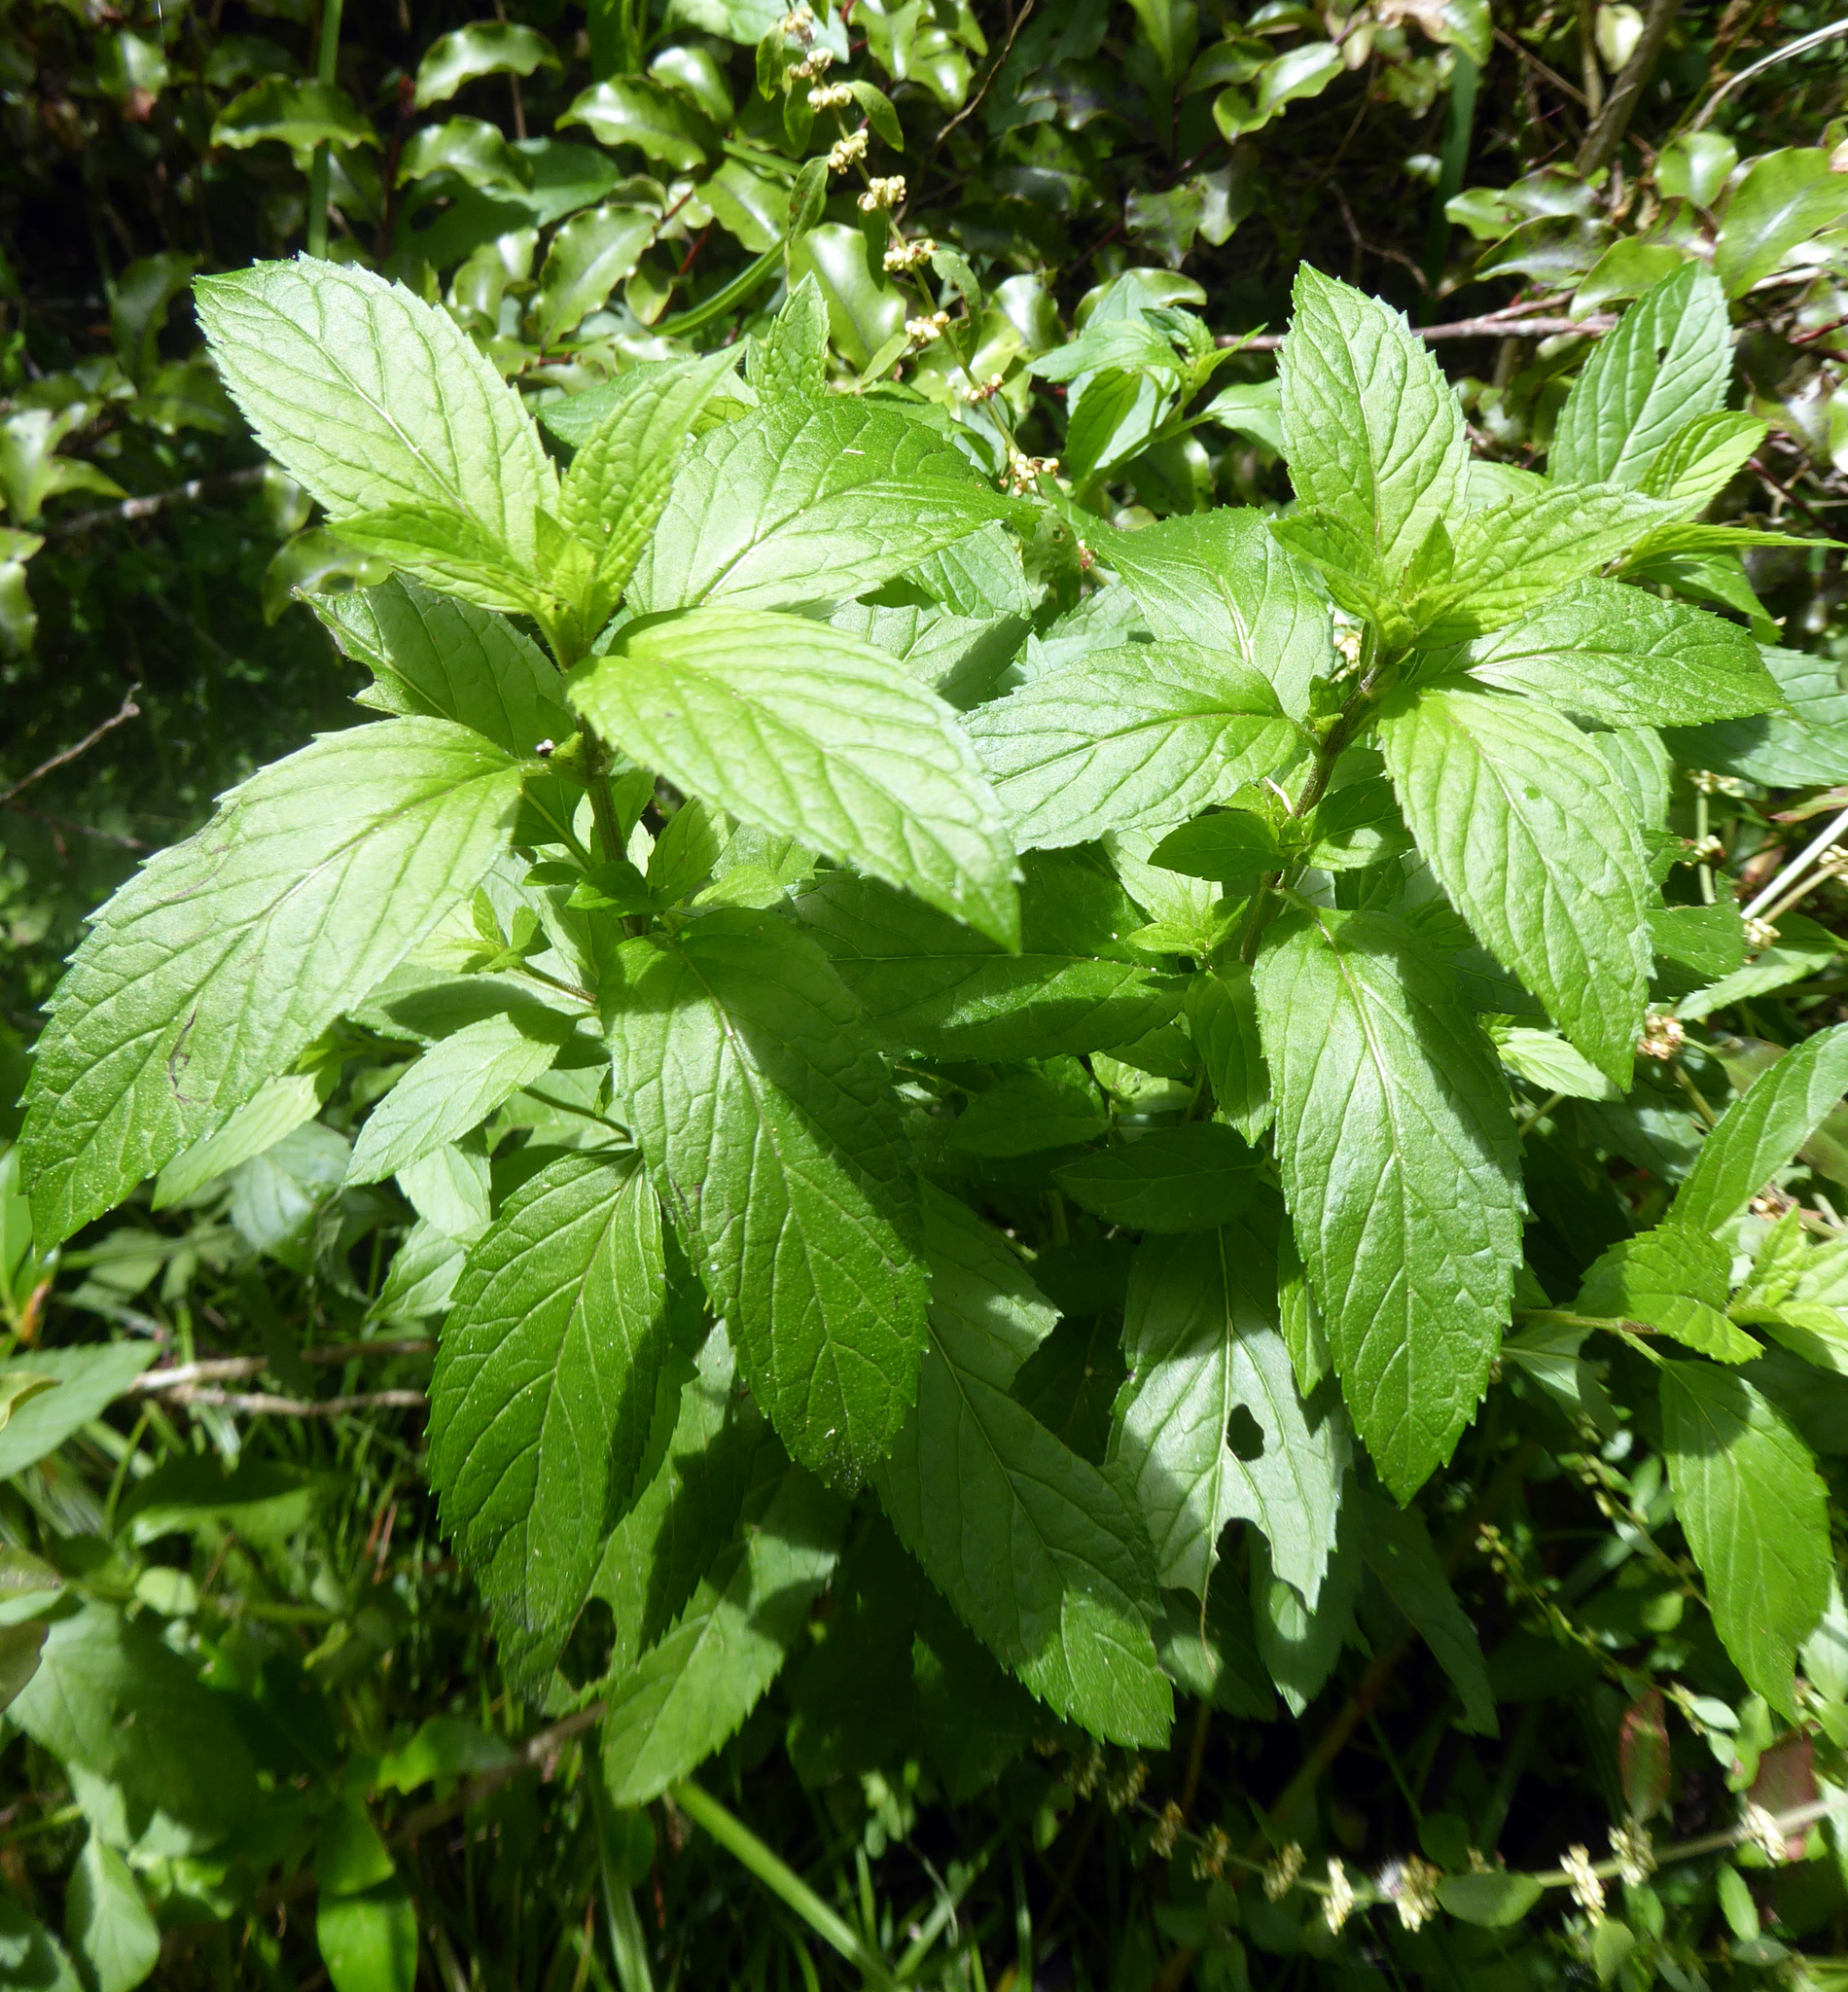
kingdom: Plantae
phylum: Tracheophyta
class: Magnoliopsida
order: Lamiales
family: Lamiaceae
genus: Mentha
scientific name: Mentha spicata
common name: Spearmint
